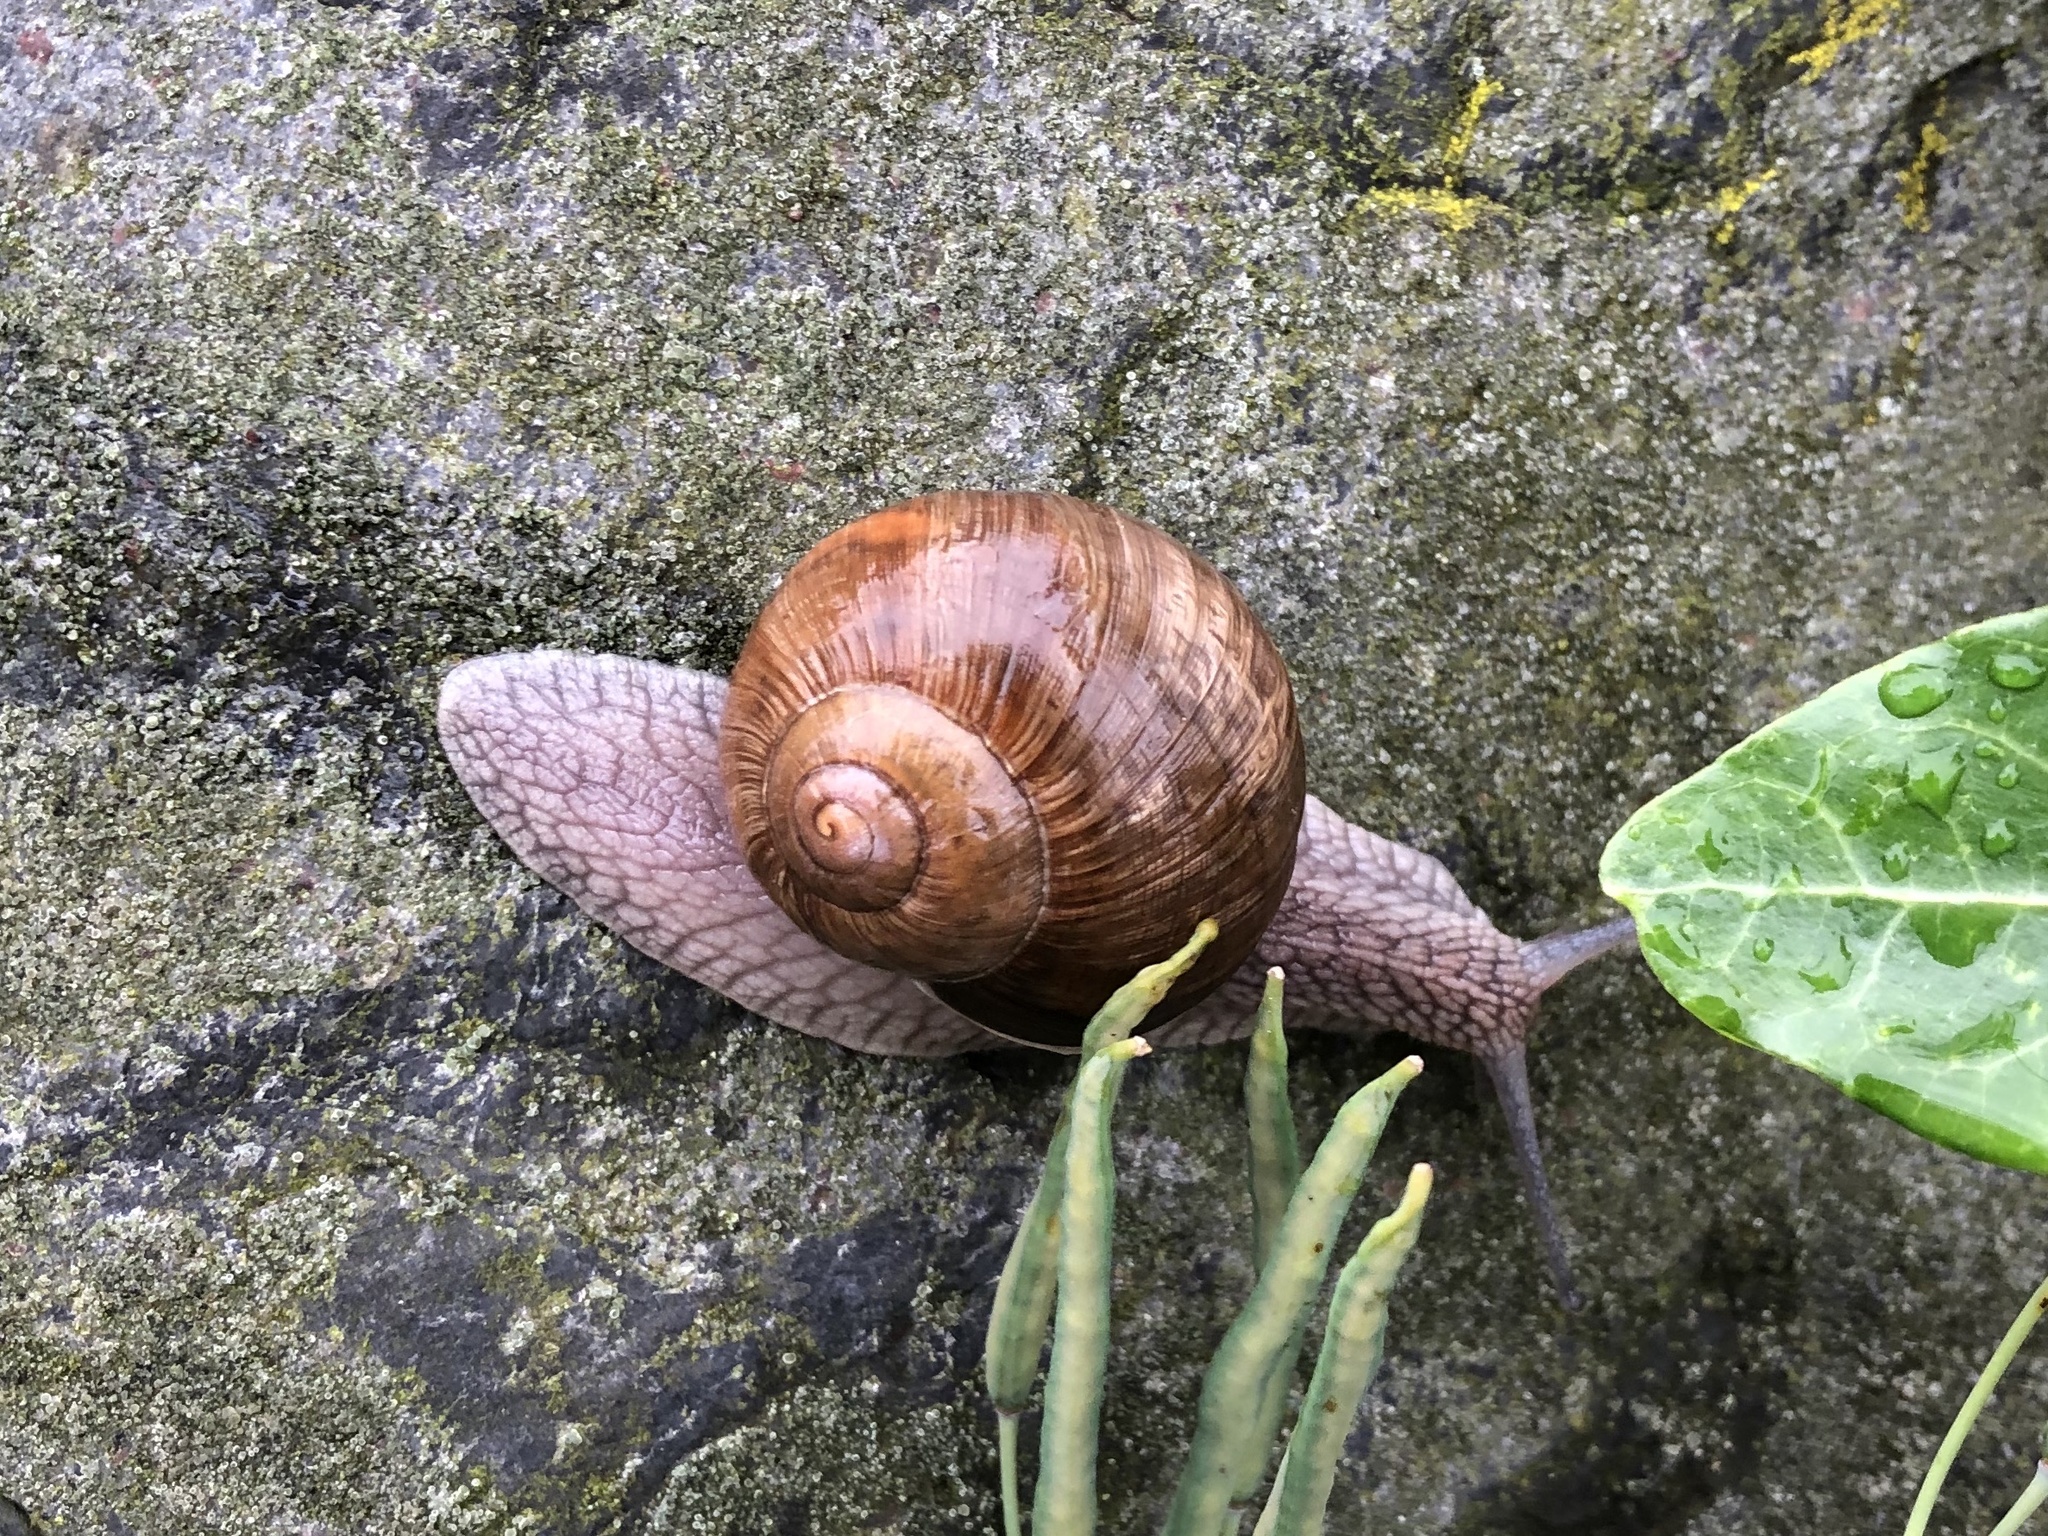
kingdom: Animalia
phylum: Mollusca
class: Gastropoda
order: Stylommatophora
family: Helicidae
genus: Helix
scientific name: Helix pomatia
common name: Roman snail
